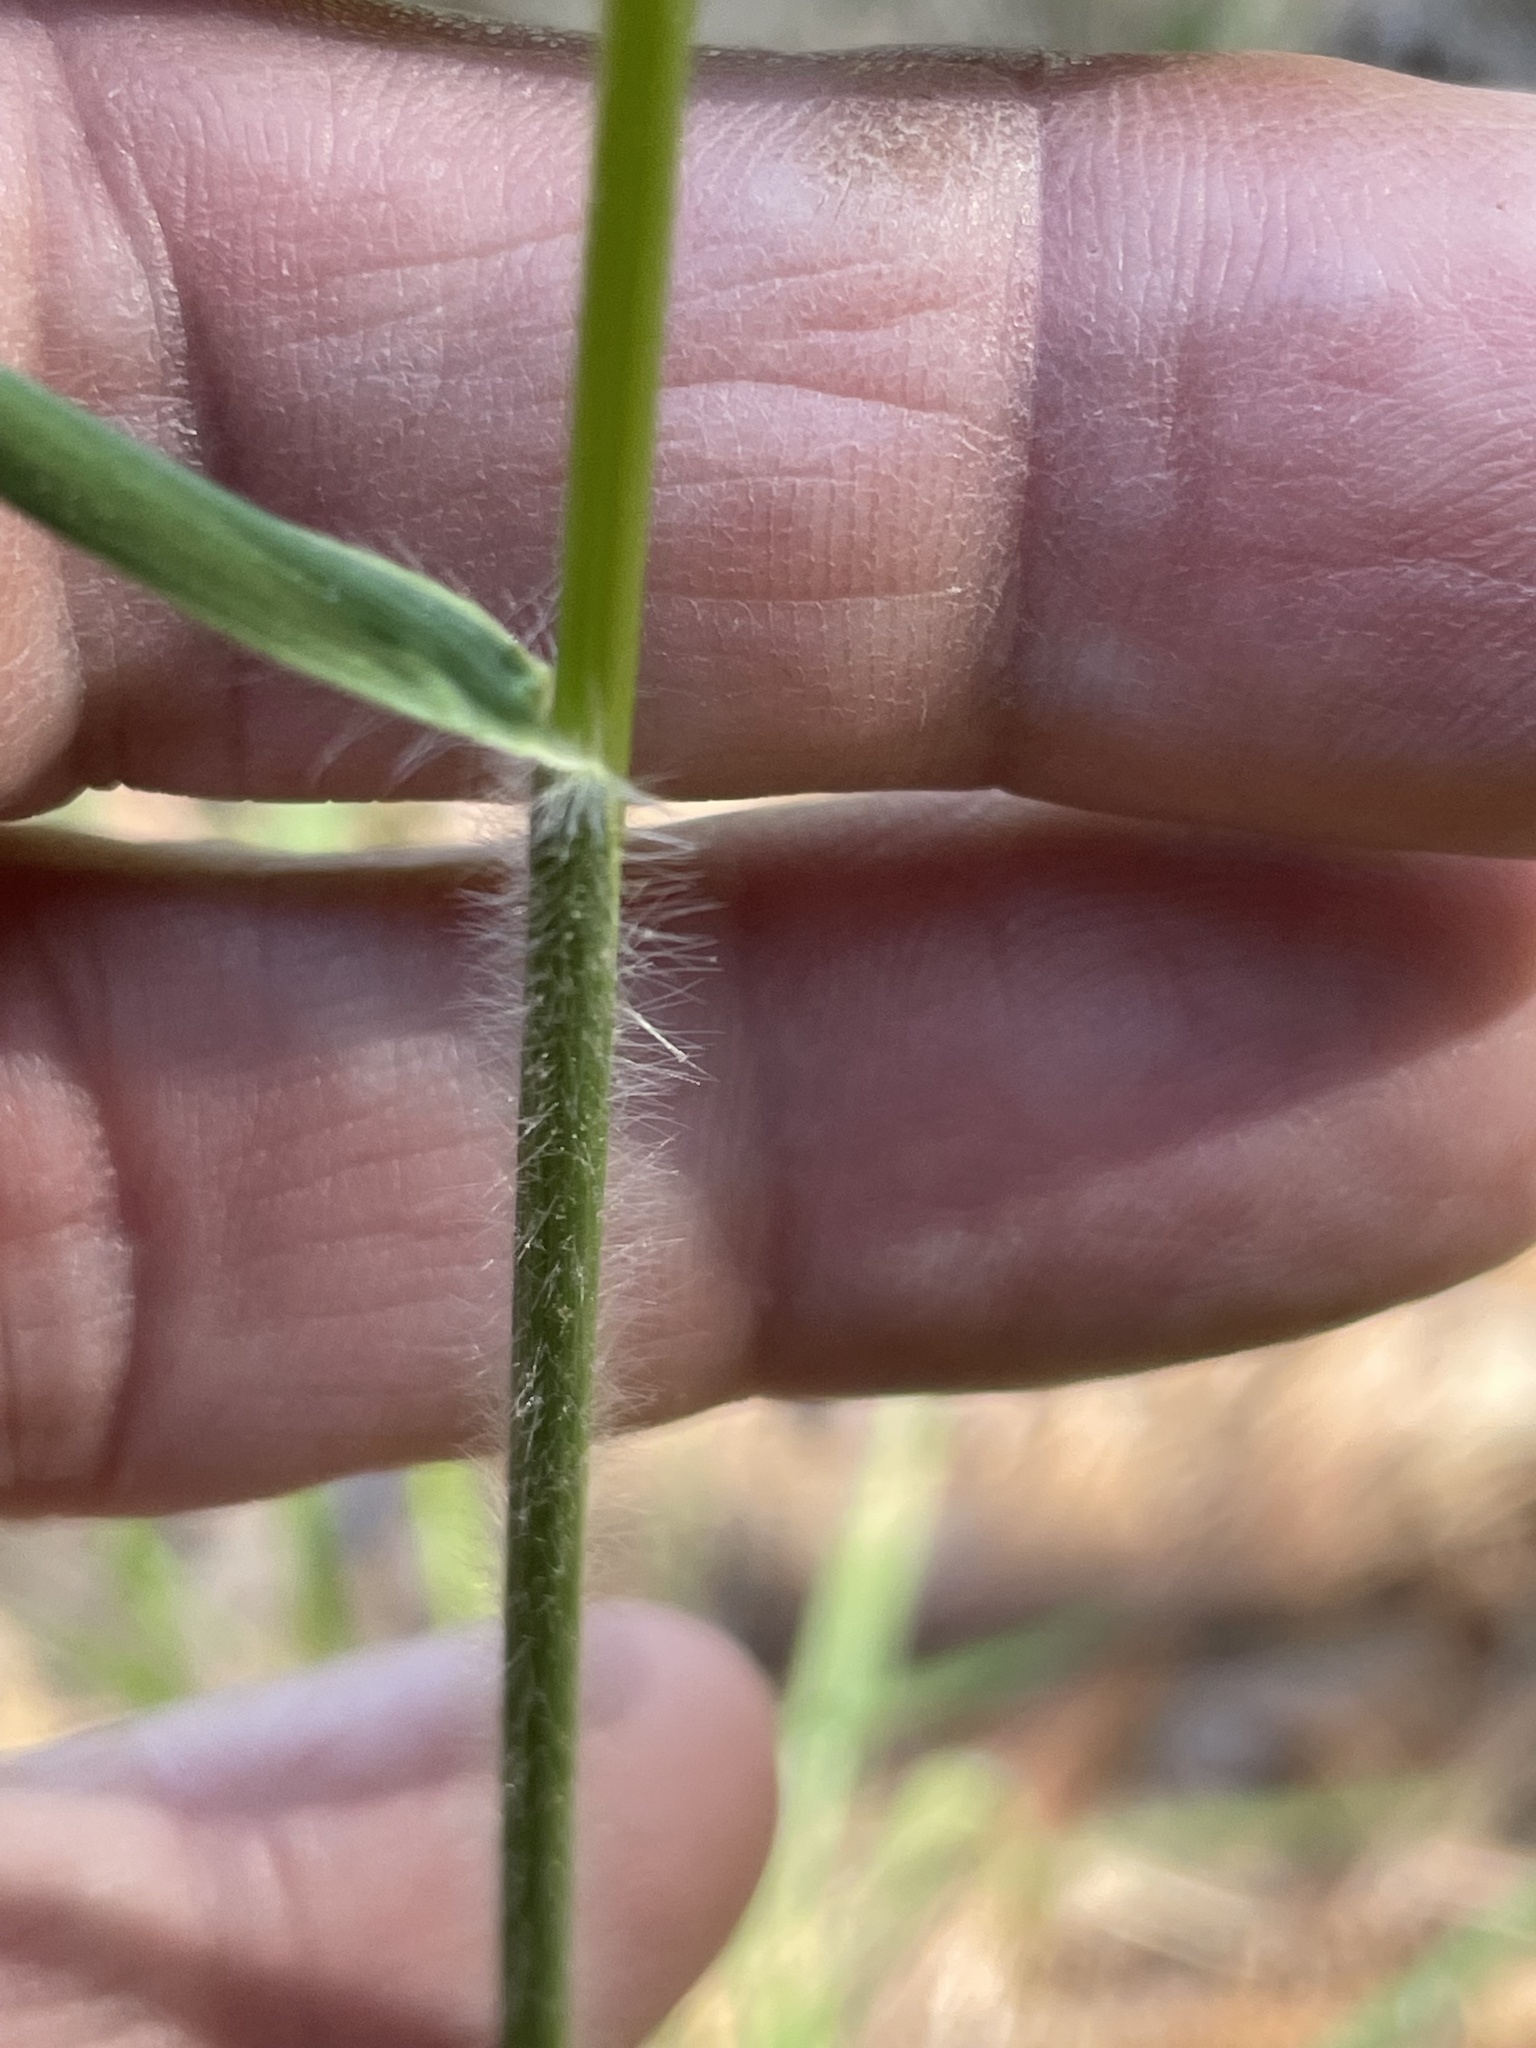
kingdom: Plantae
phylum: Tracheophyta
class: Liliopsida
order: Poales
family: Poaceae
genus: Danthonia
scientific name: Danthonia sericea
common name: Downy danthonia
